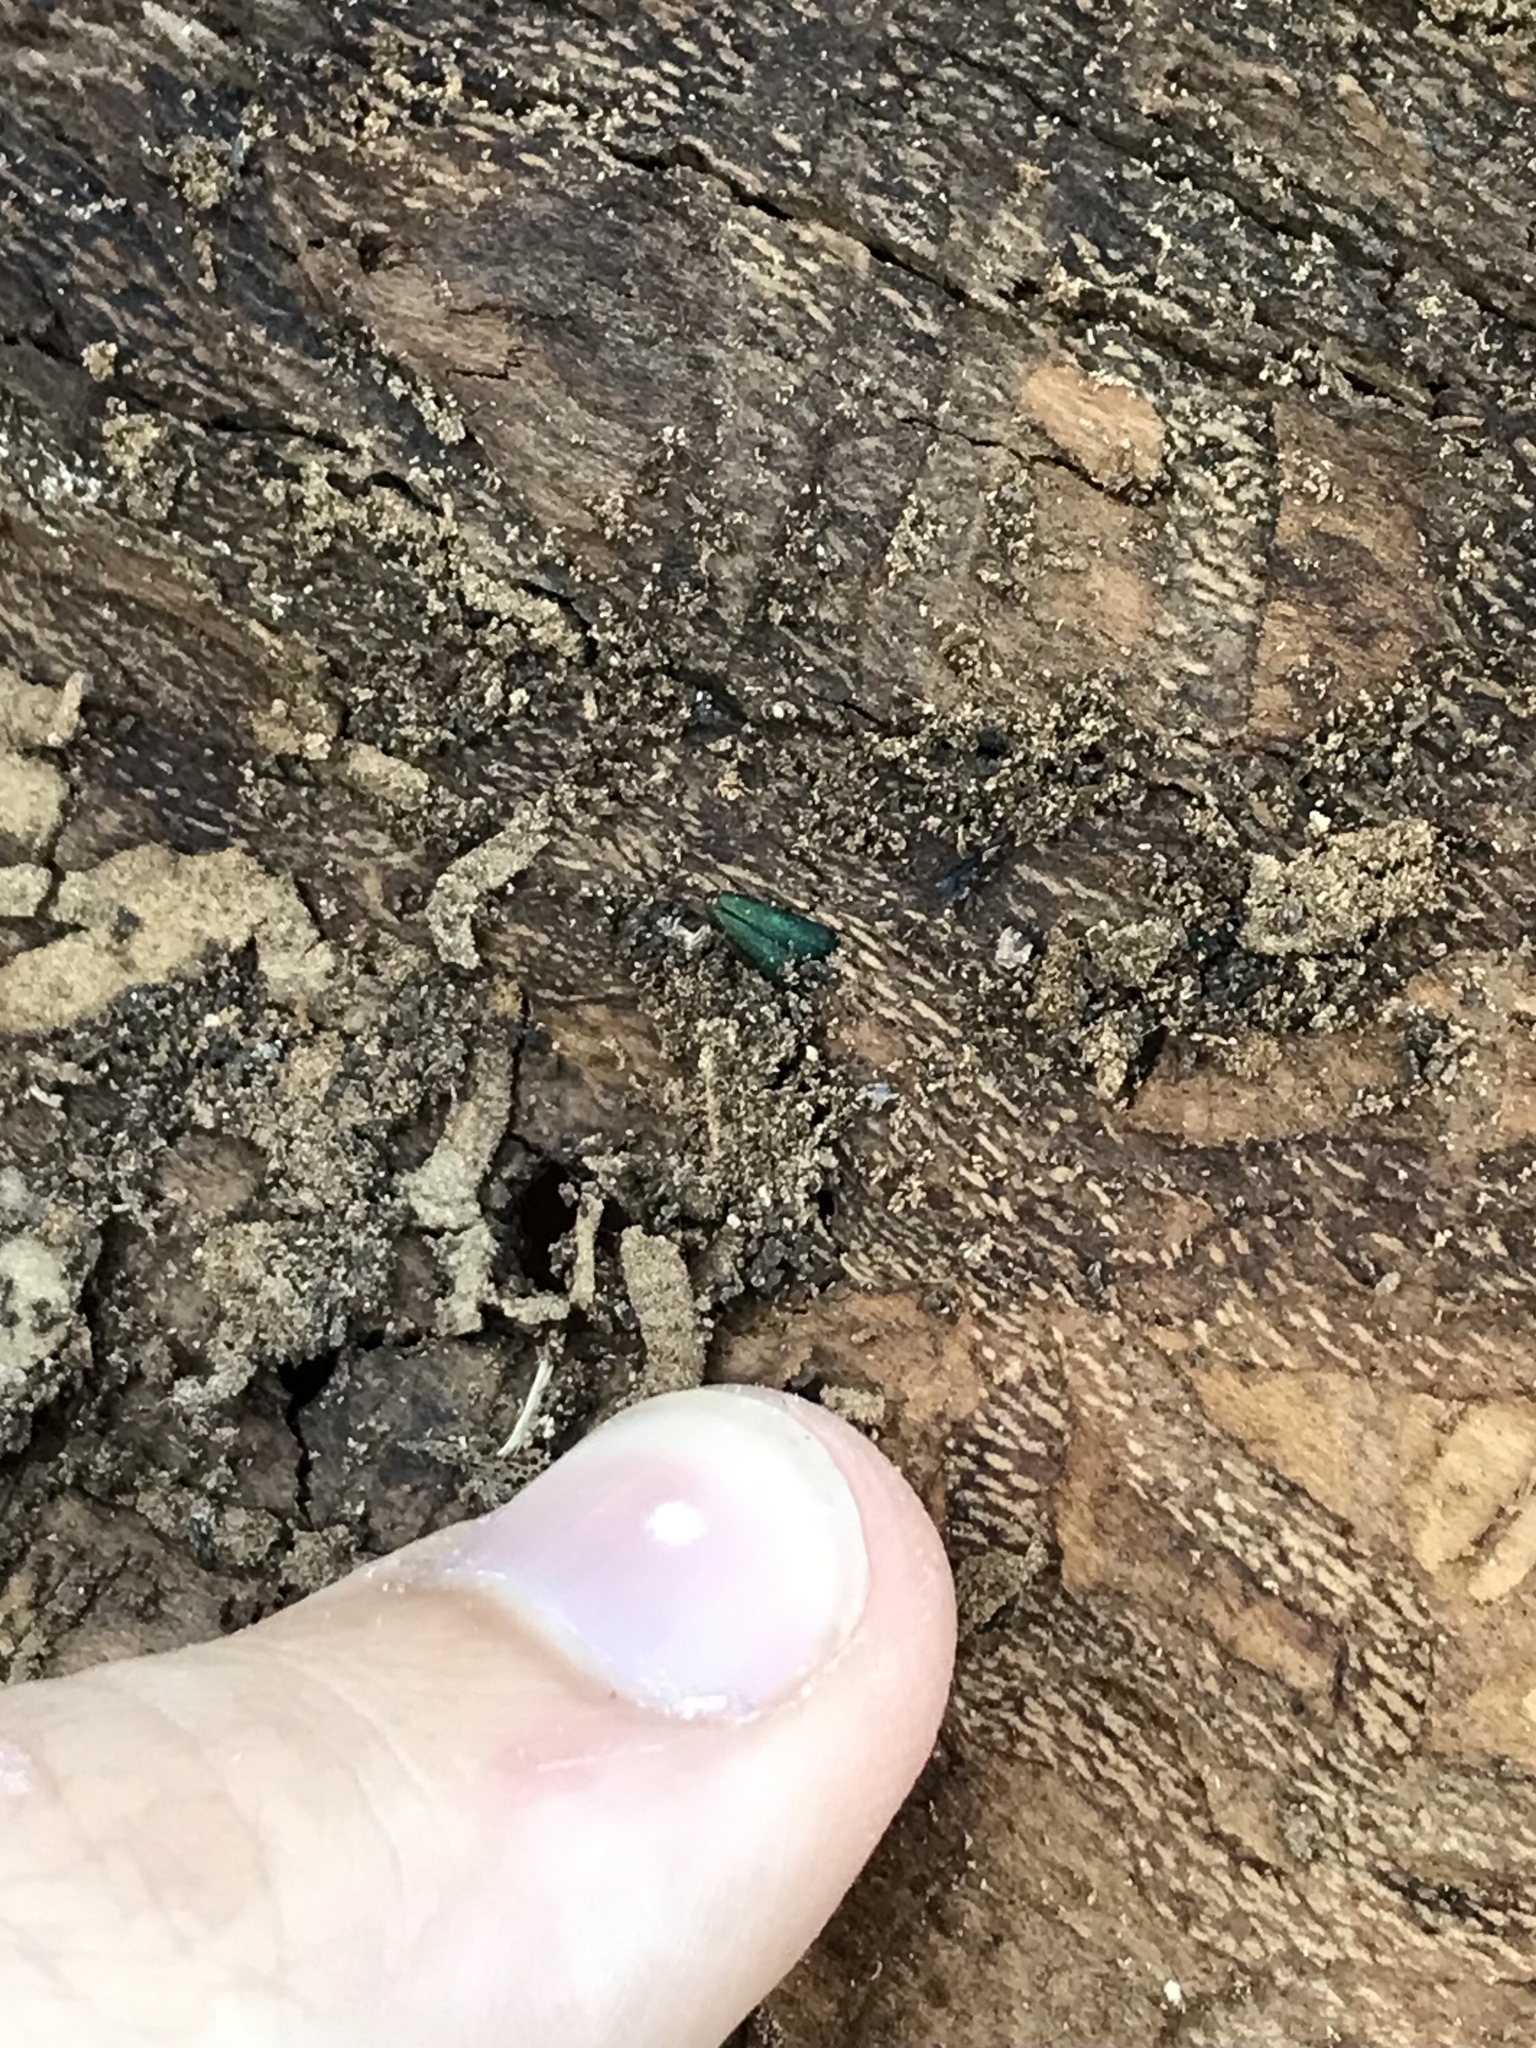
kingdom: Animalia
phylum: Arthropoda
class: Insecta
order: Coleoptera
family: Buprestidae
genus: Agrilus
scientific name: Agrilus planipennis
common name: Emerald ash borer
